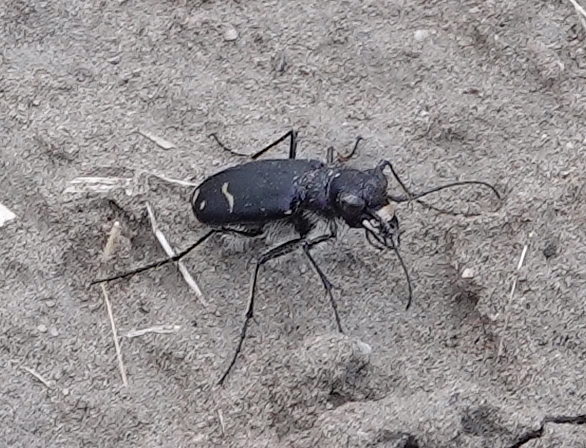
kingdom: Animalia
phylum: Arthropoda
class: Insecta
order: Coleoptera
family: Carabidae
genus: Cicindela
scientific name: Cicindela purpurea
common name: Cow path tiger beetle
